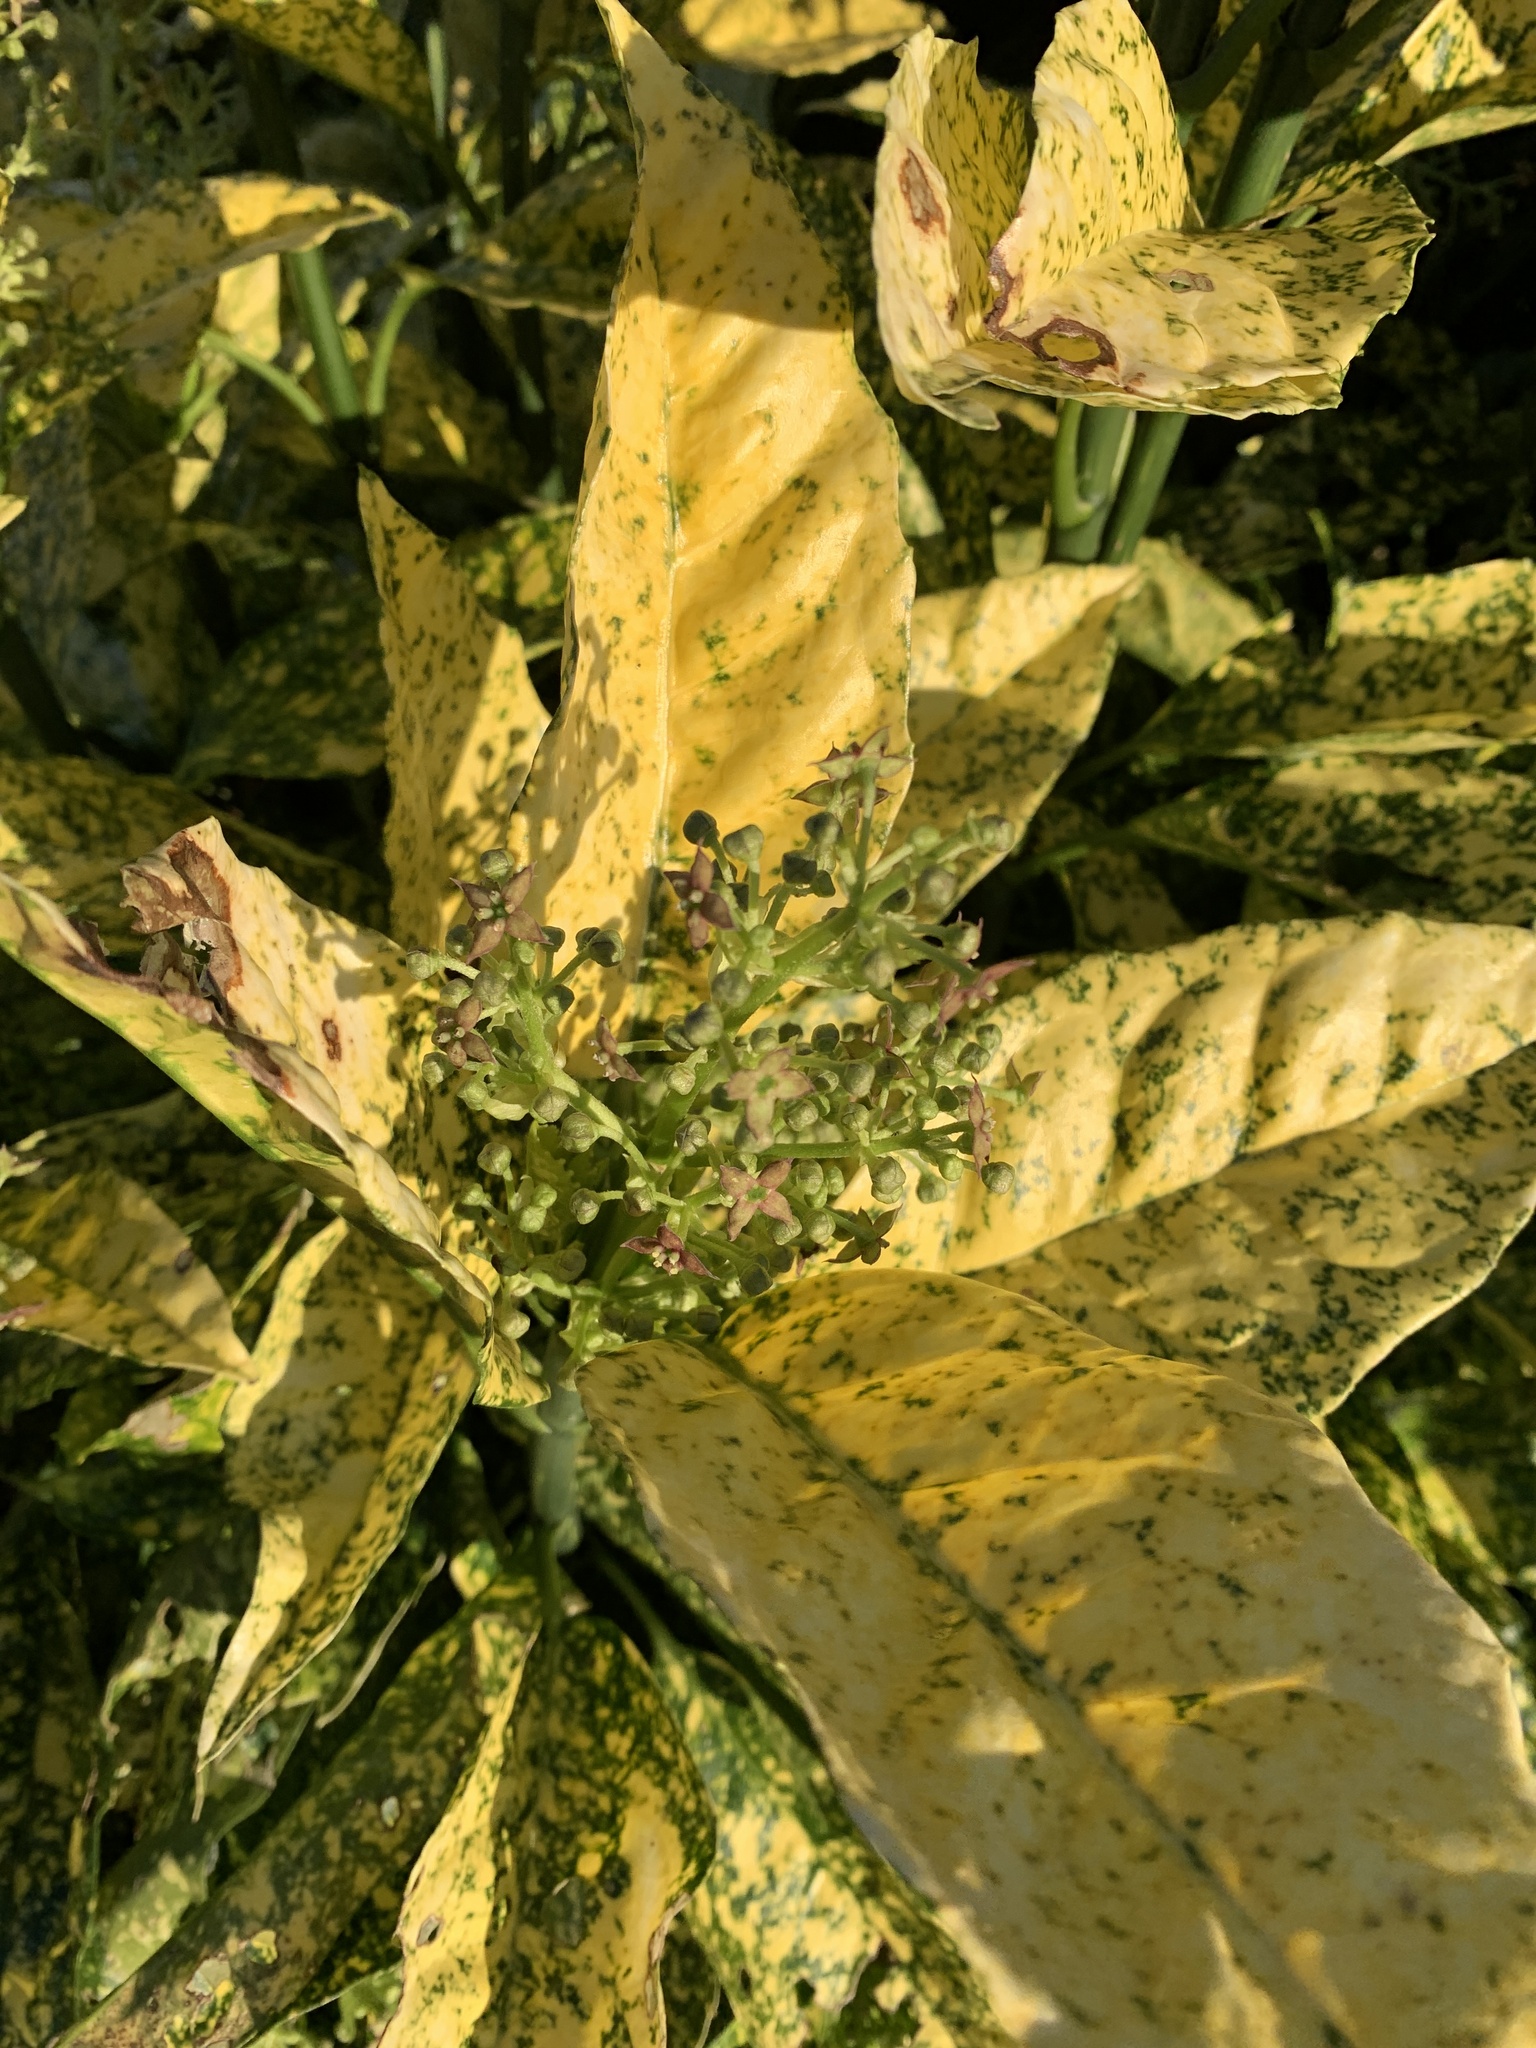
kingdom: Plantae
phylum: Tracheophyta
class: Magnoliopsida
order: Garryales
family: Garryaceae
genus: Aucuba
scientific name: Aucuba japonica
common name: Spotted-laurel
